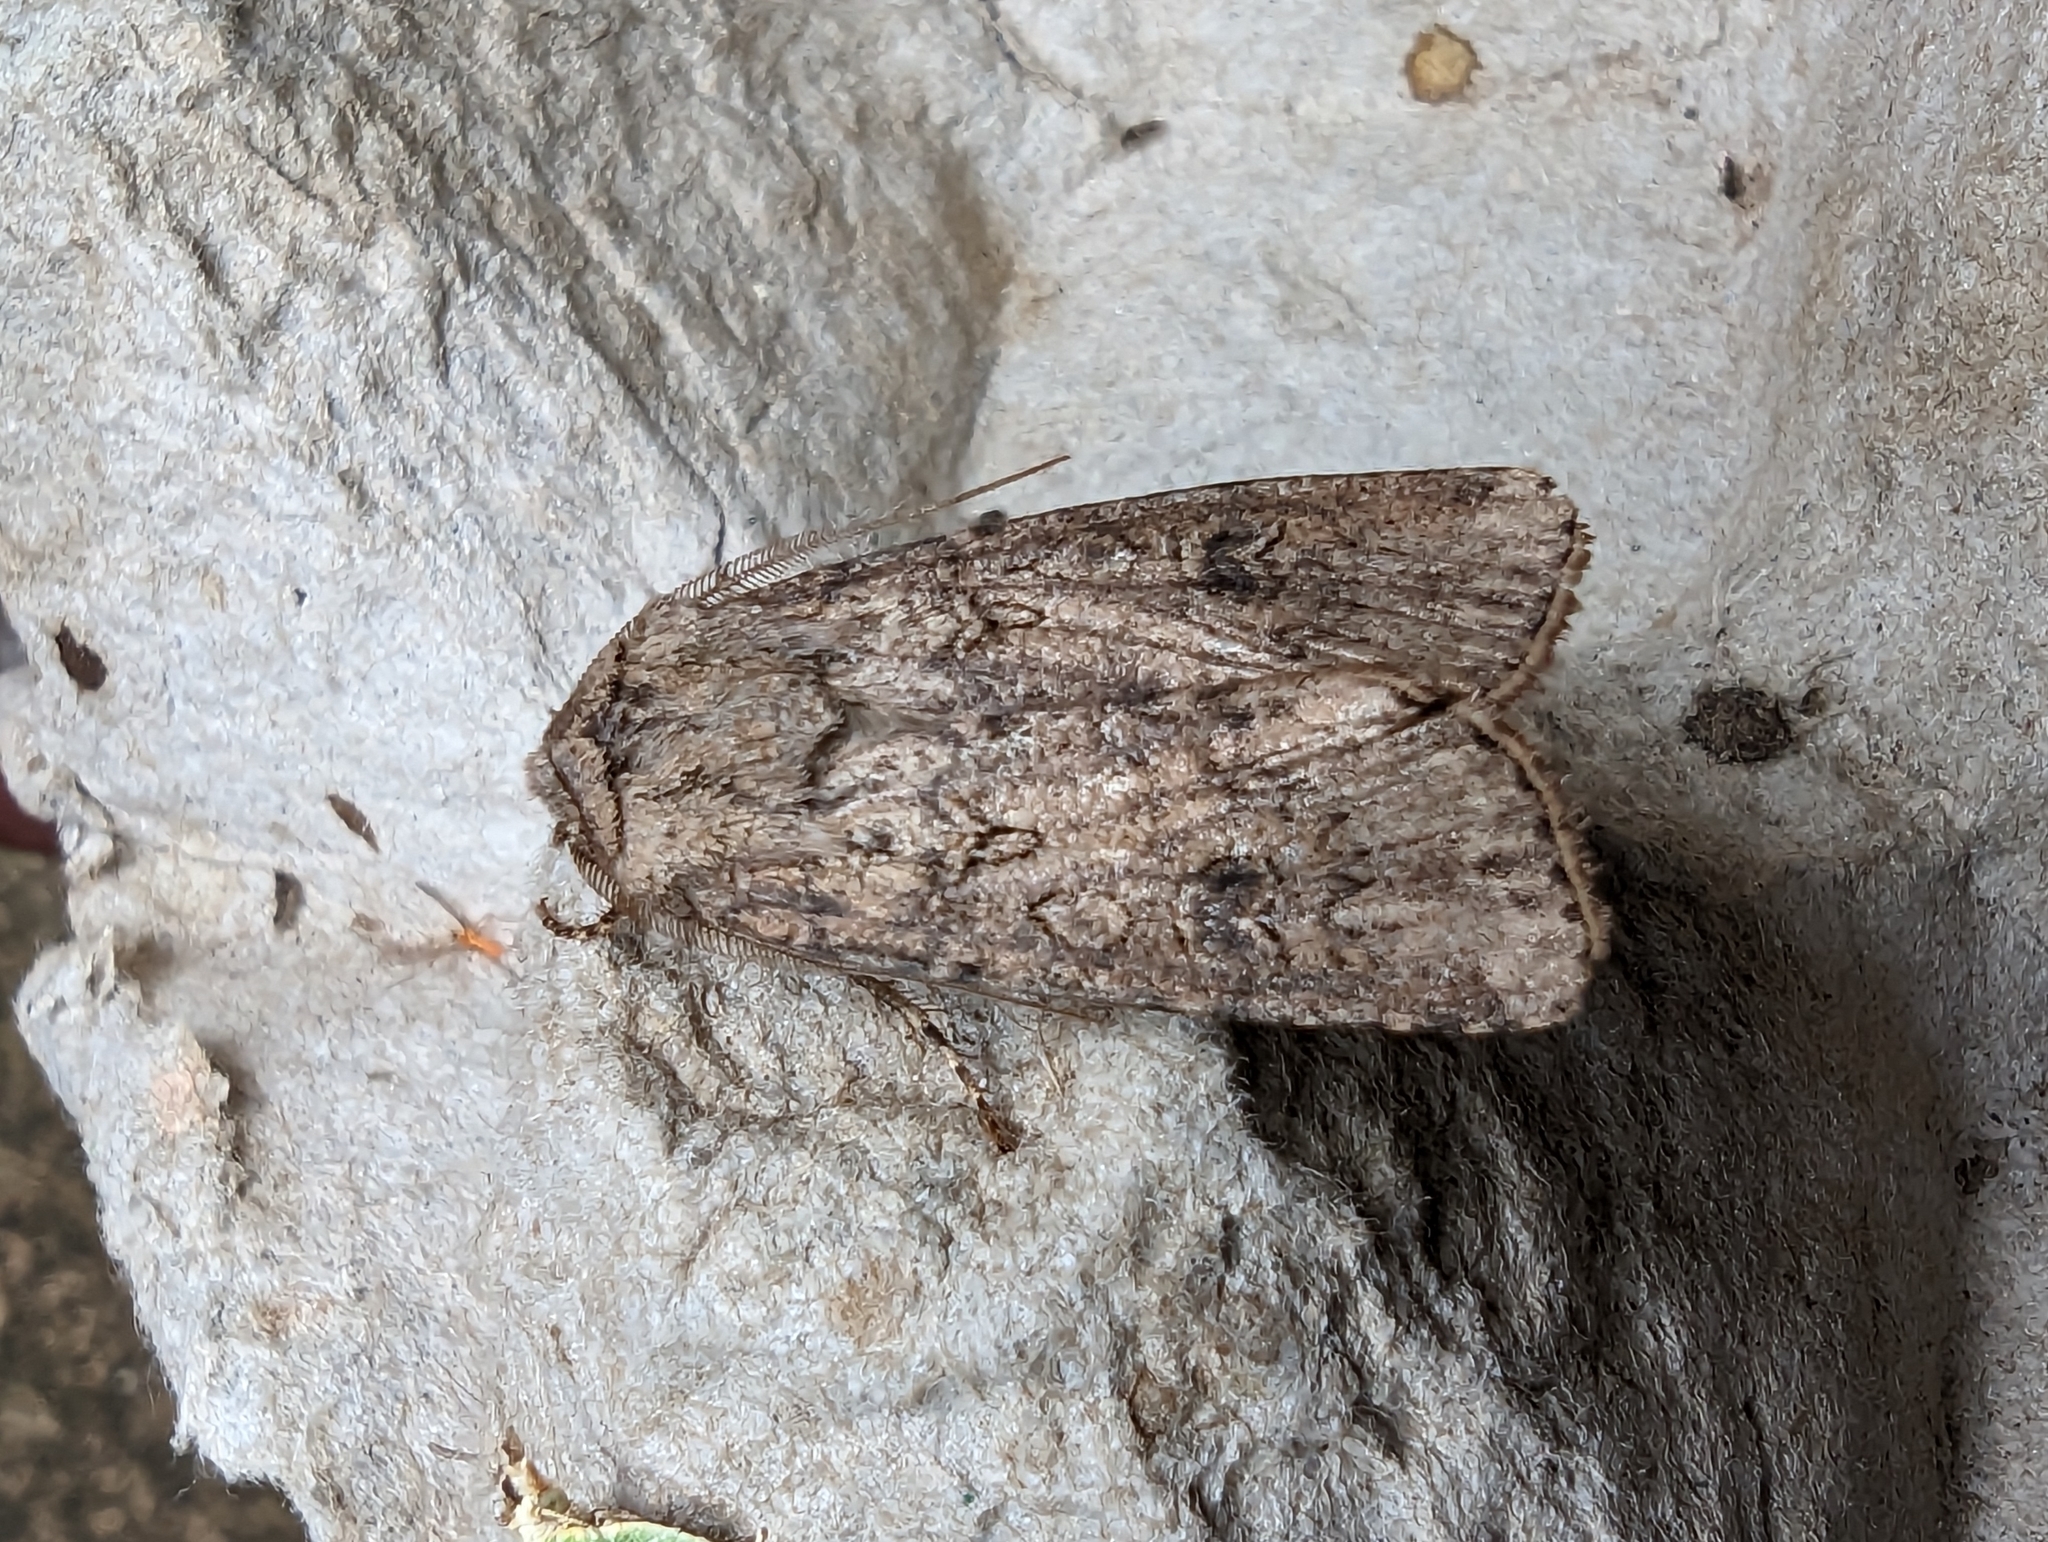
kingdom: Animalia
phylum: Arthropoda
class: Insecta
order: Lepidoptera
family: Noctuidae
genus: Agrotis
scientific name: Agrotis segetum
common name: Turnip moth
